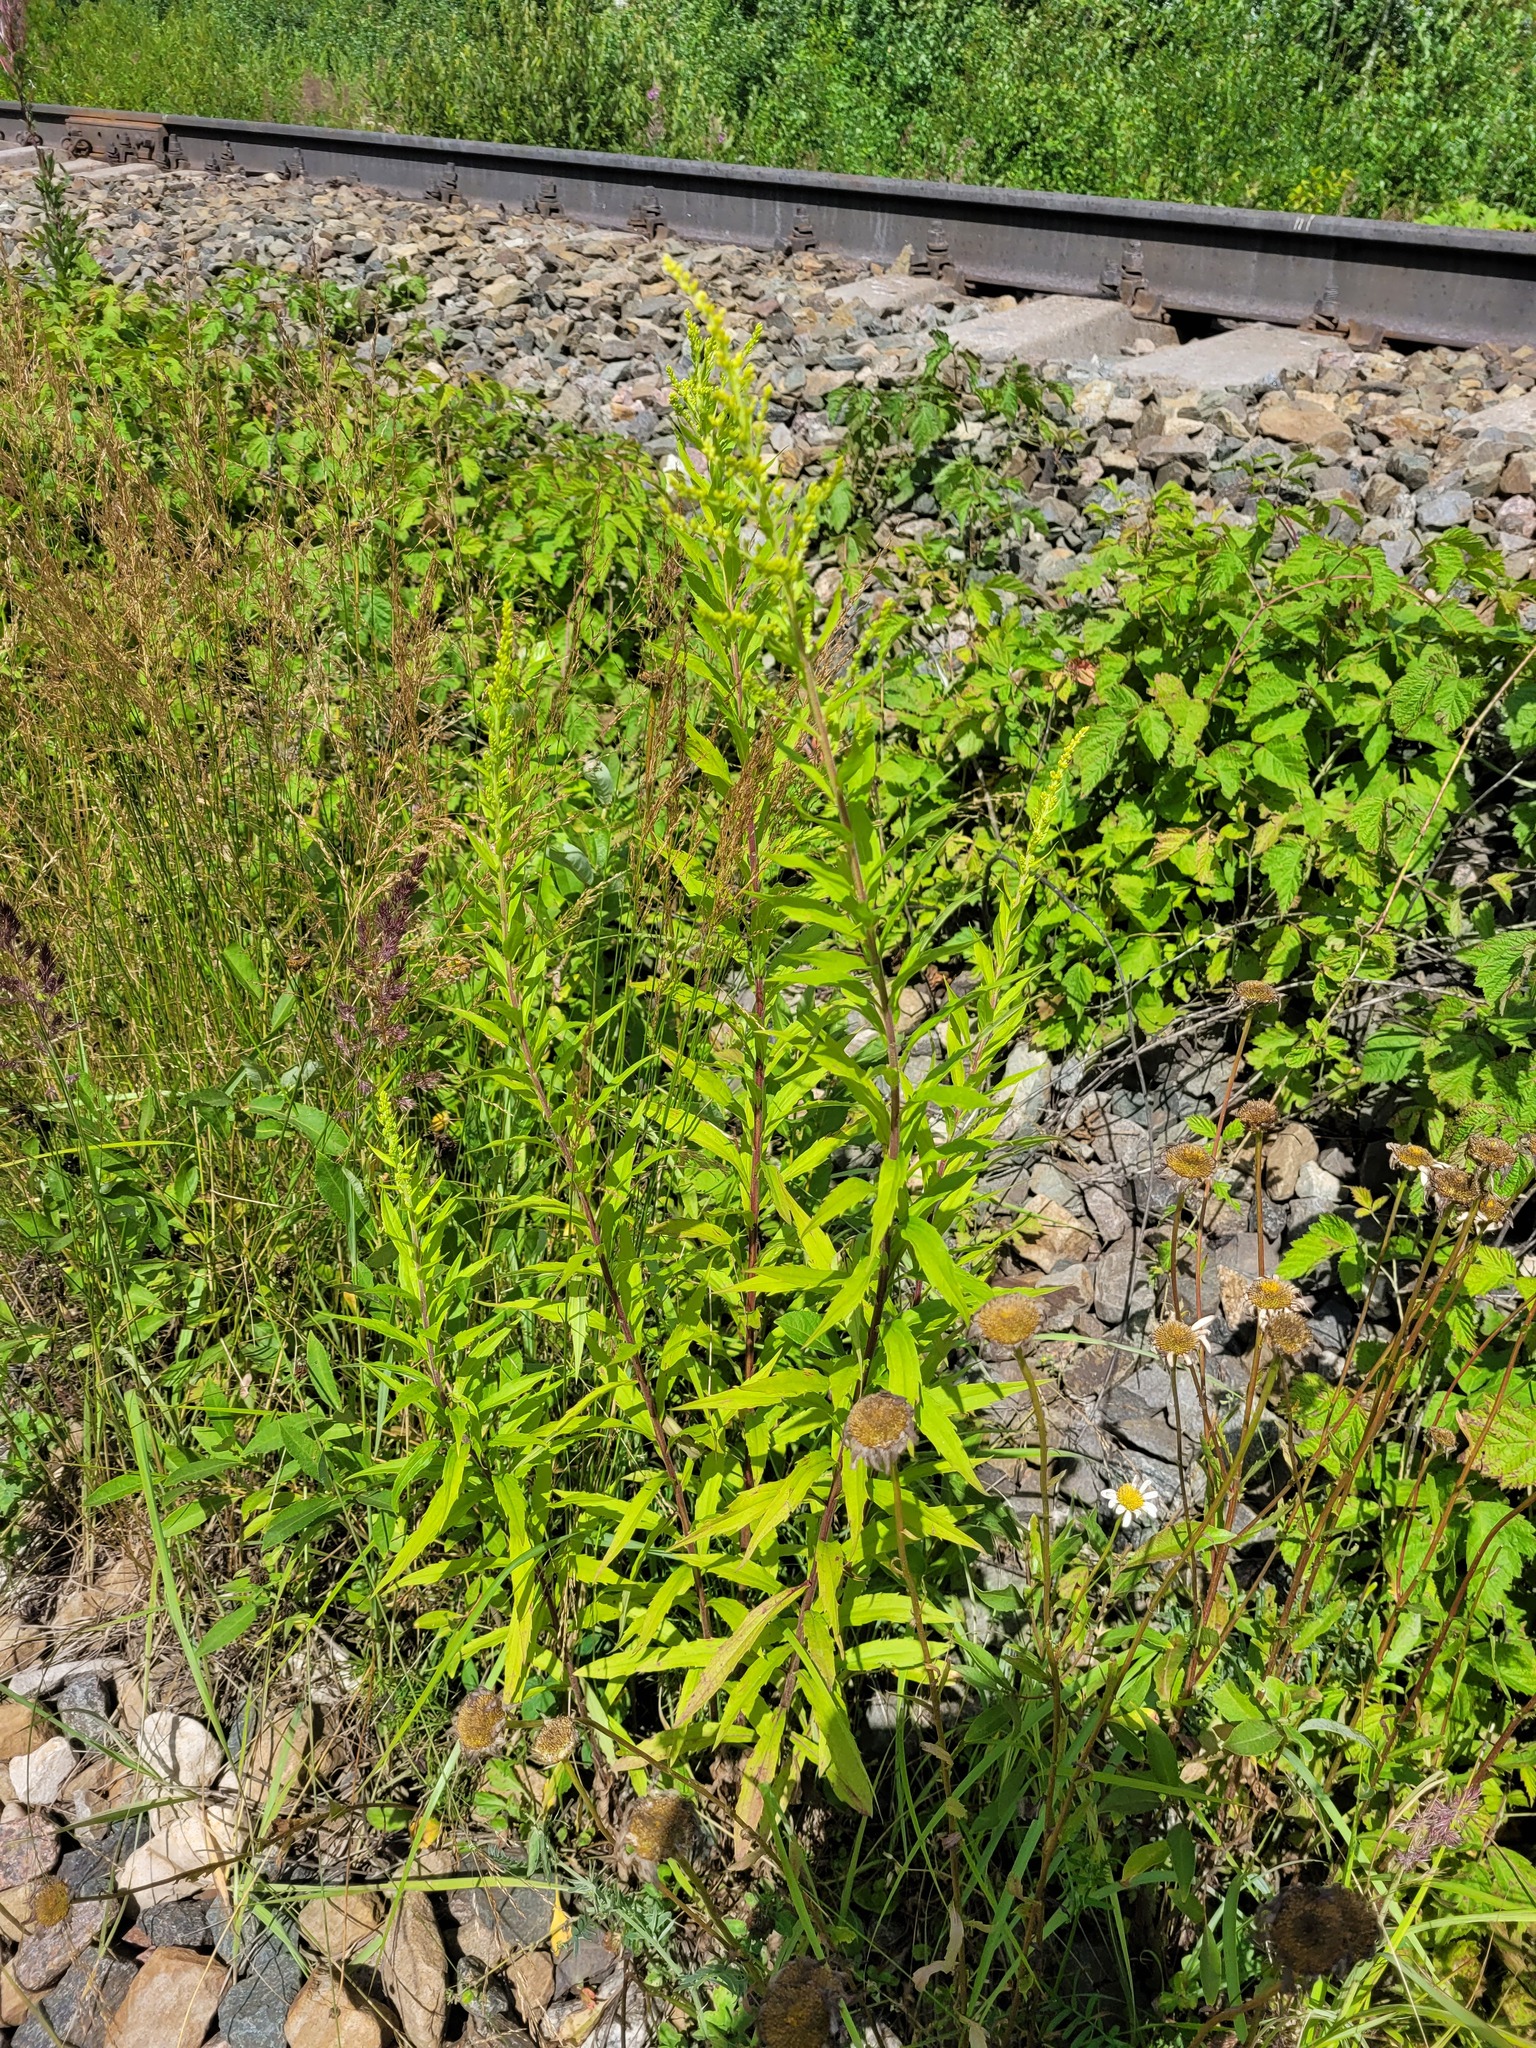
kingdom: Plantae
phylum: Tracheophyta
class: Magnoliopsida
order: Asterales
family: Asteraceae
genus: Solidago
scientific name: Solidago canadensis
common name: Canada goldenrod
